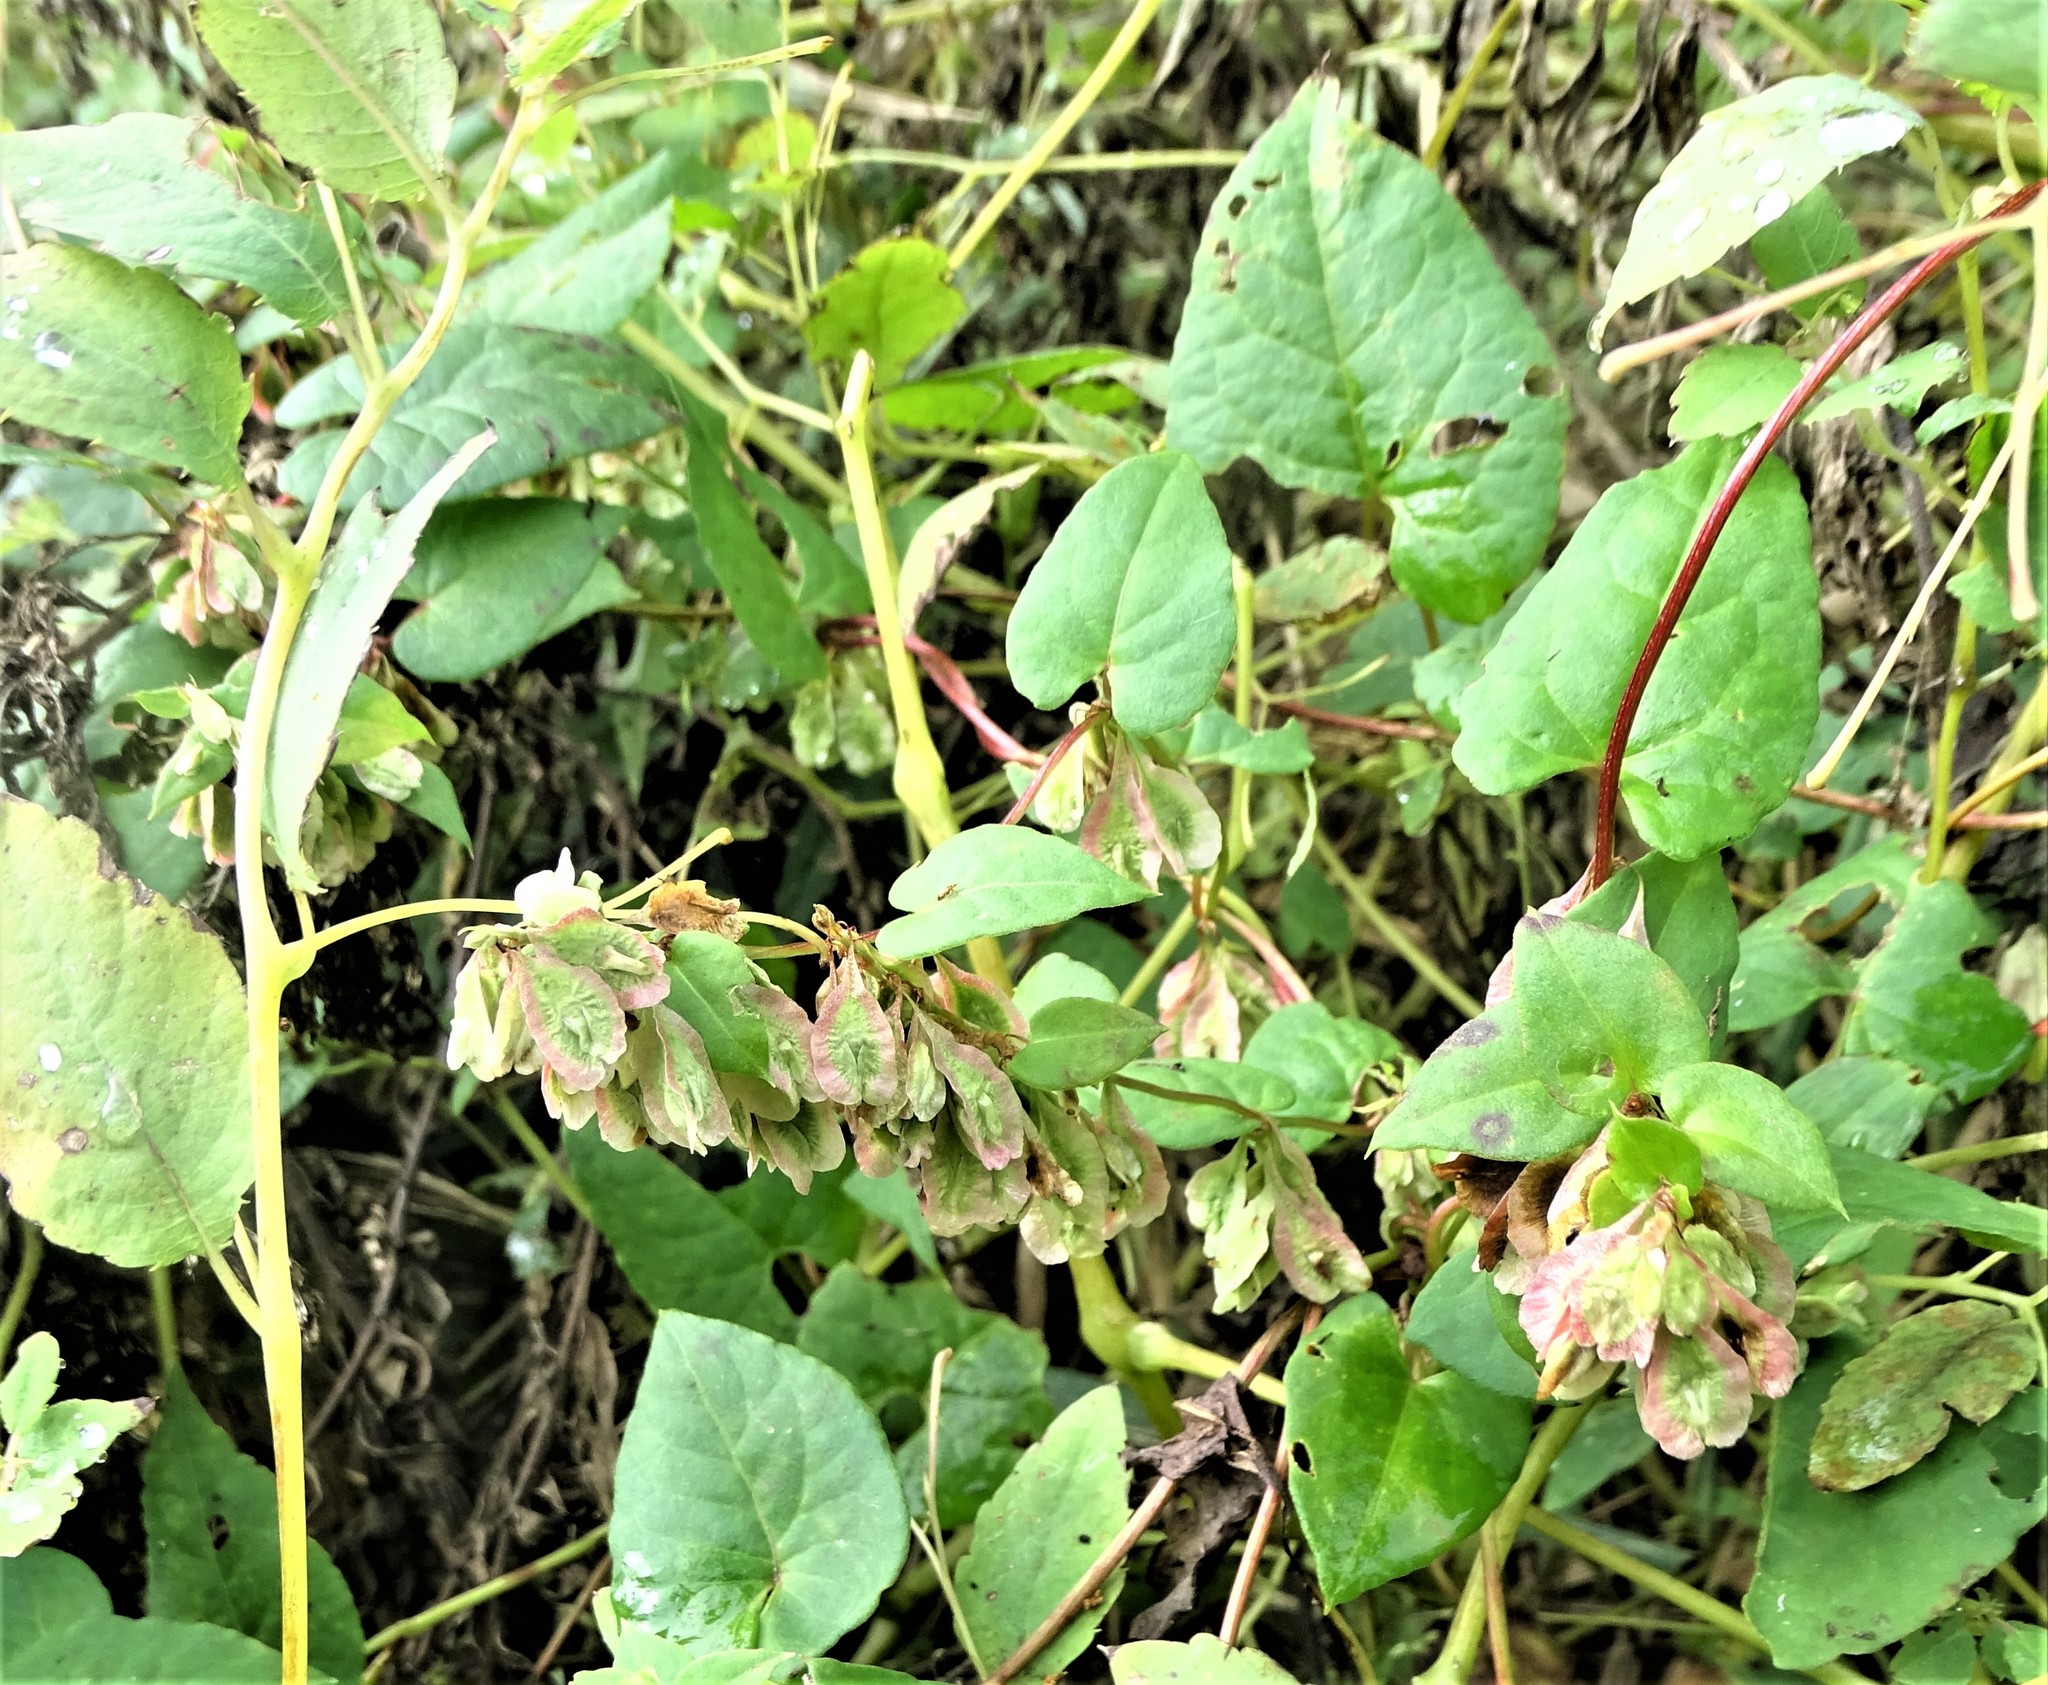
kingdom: Plantae
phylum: Tracheophyta
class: Magnoliopsida
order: Caryophyllales
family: Polygonaceae
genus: Fallopia
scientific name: Fallopia scandens
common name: Climbing false buckwheat
